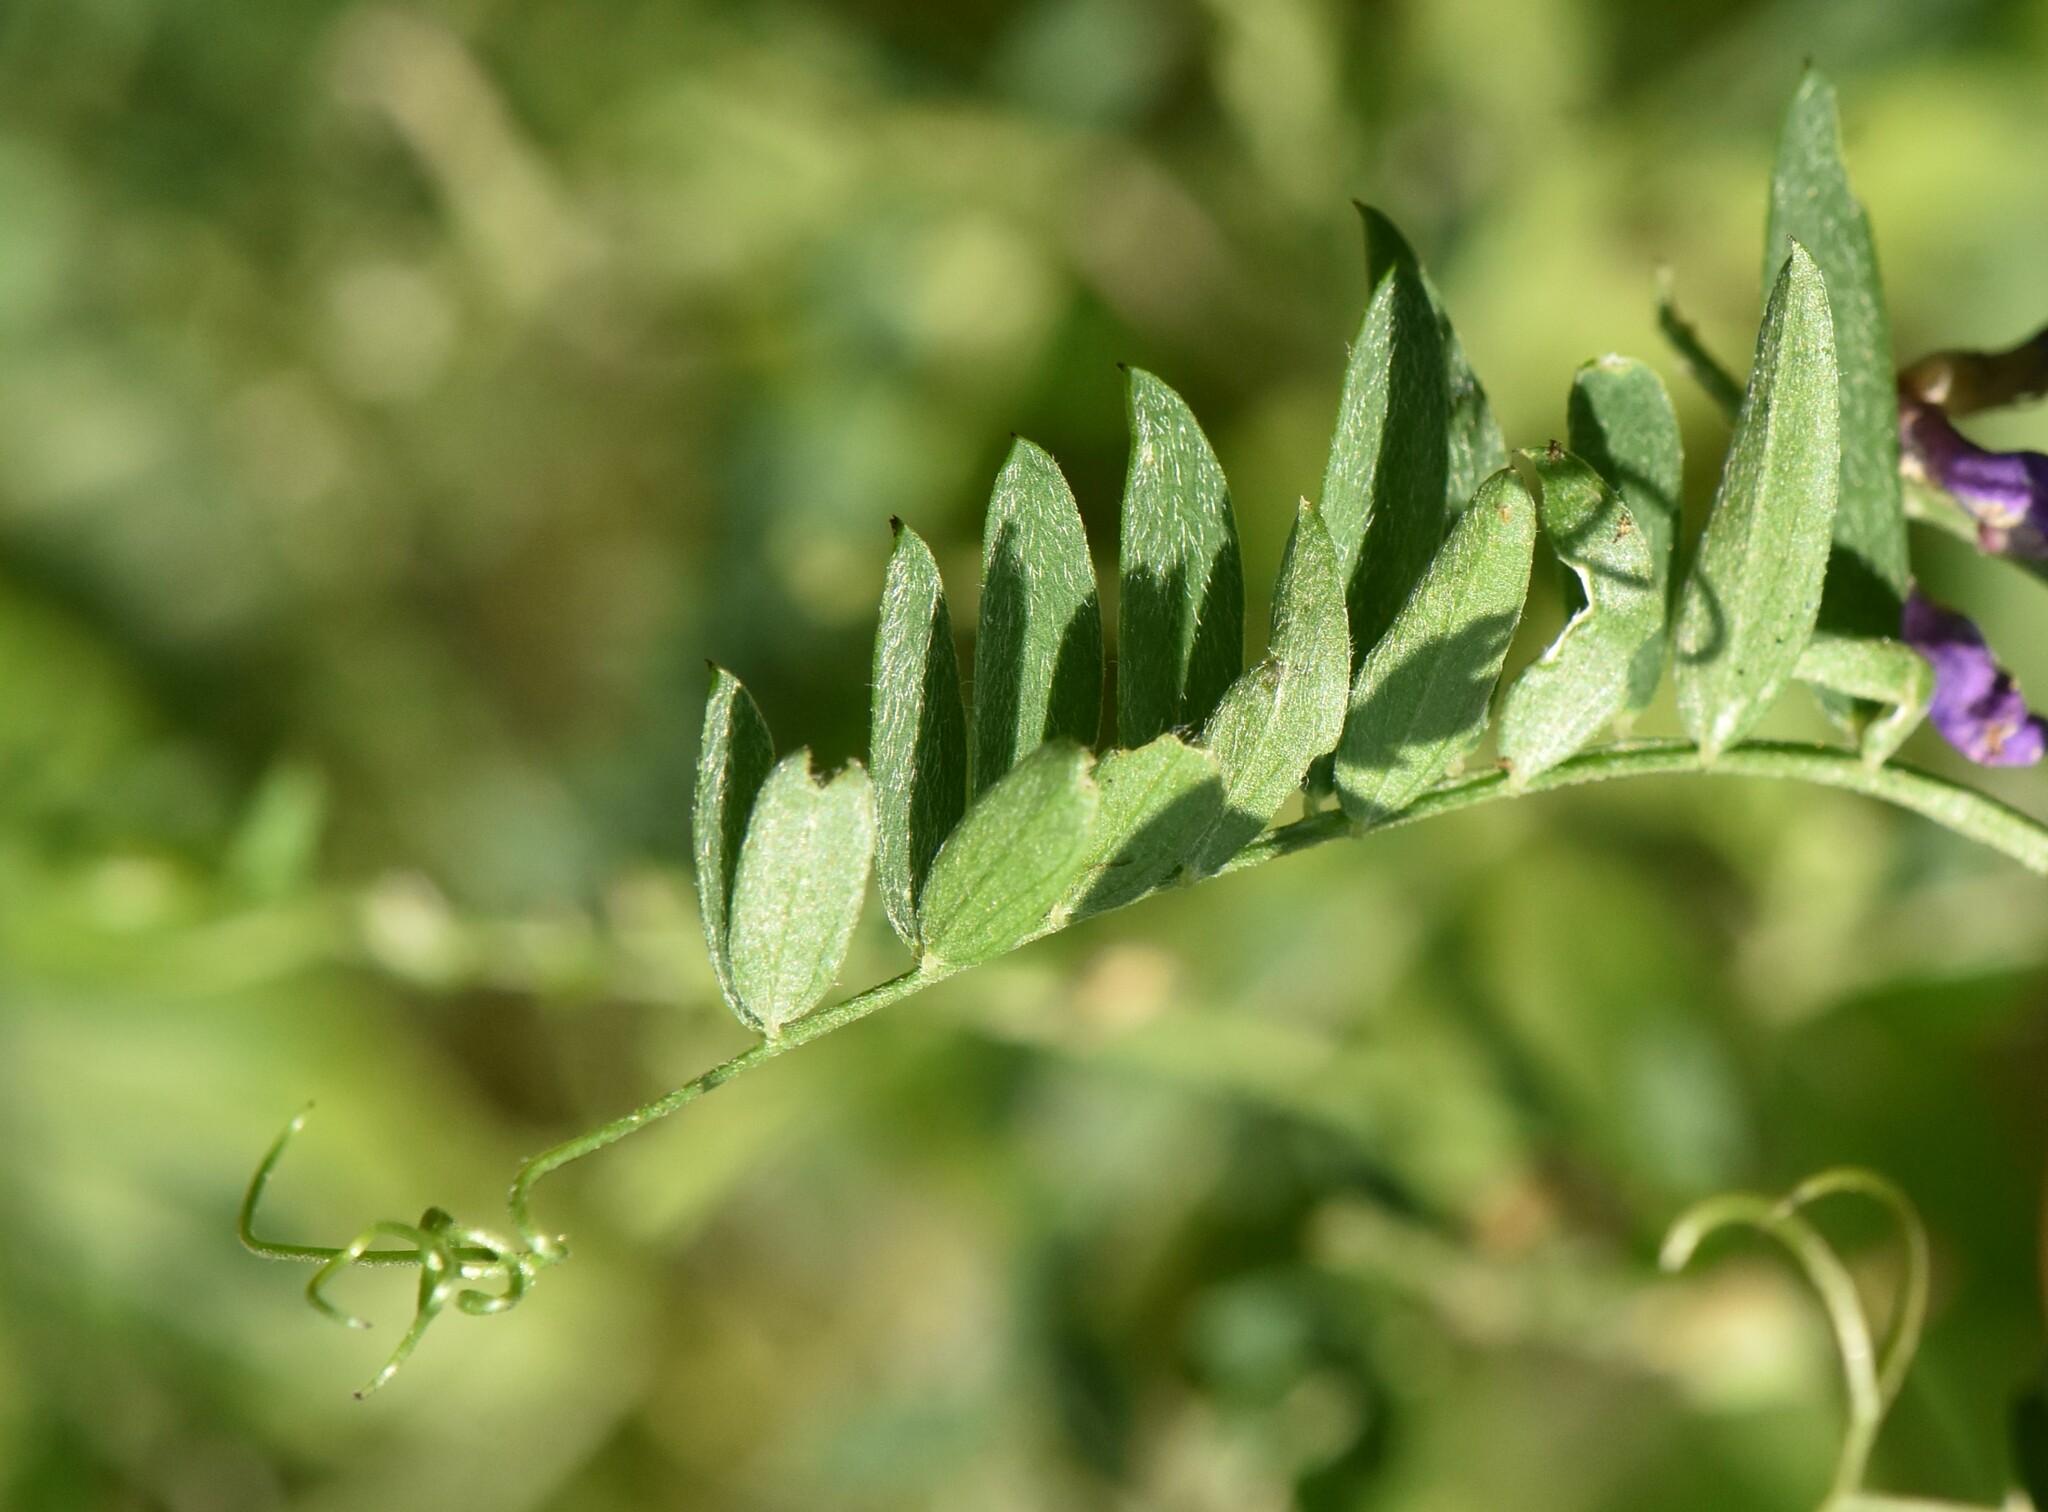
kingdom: Plantae
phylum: Tracheophyta
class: Magnoliopsida
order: Fabales
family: Fabaceae
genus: Vicia
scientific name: Vicia cracca
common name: Bird vetch
